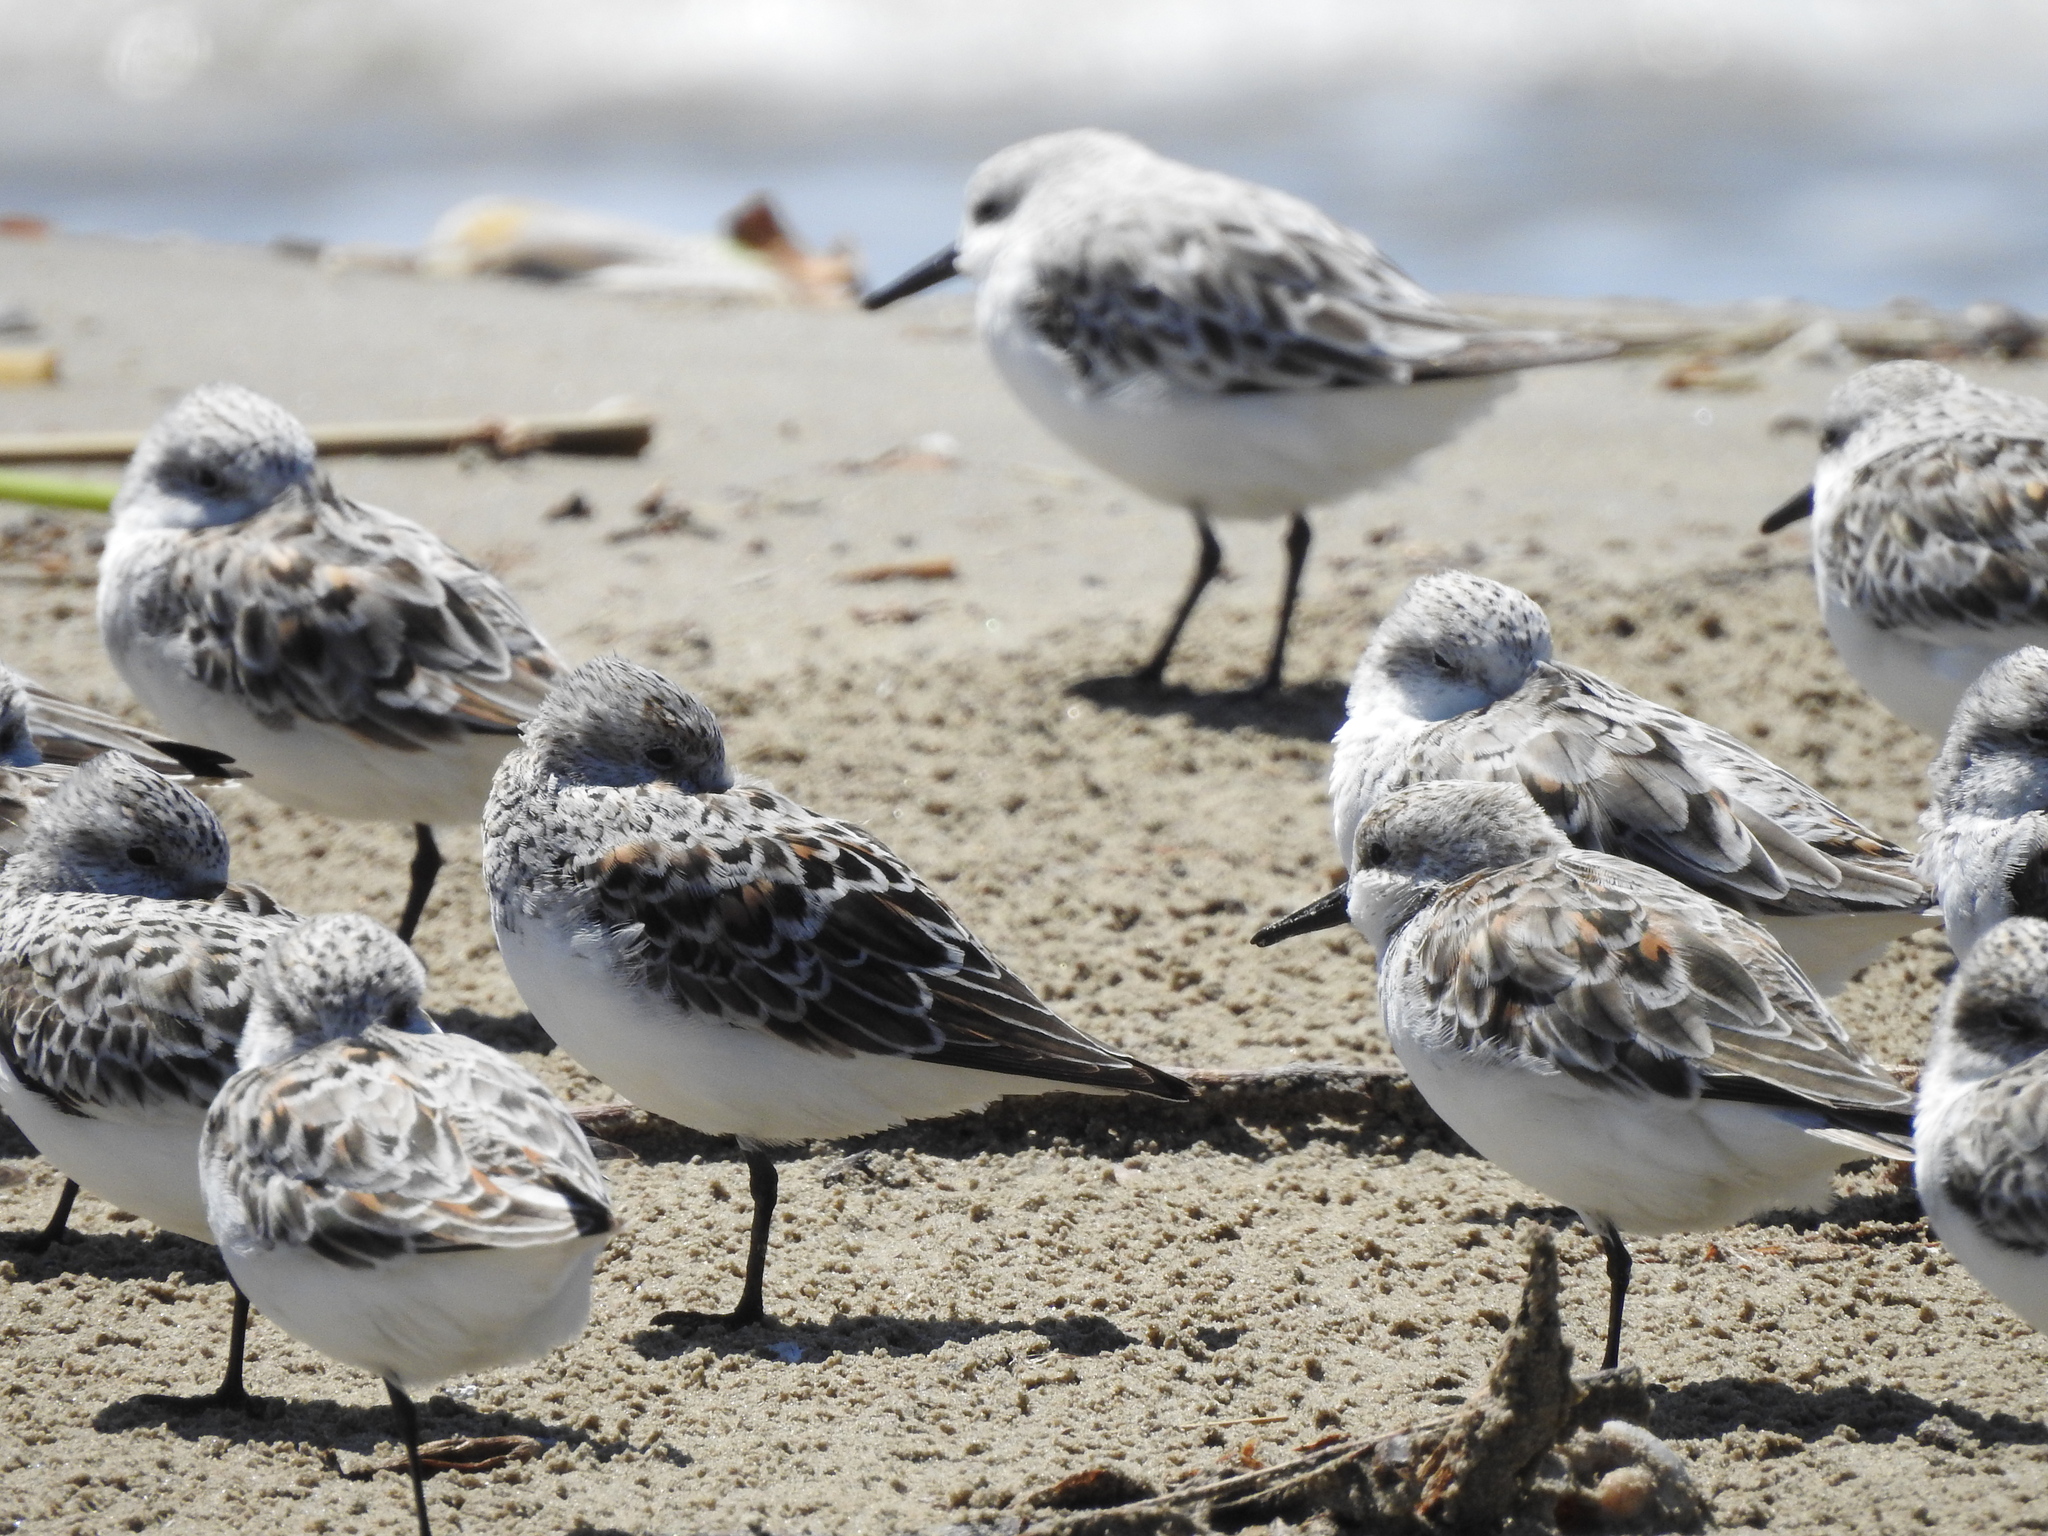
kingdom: Animalia
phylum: Chordata
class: Aves
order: Charadriiformes
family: Scolopacidae
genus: Calidris
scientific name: Calidris alba
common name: Sanderling
